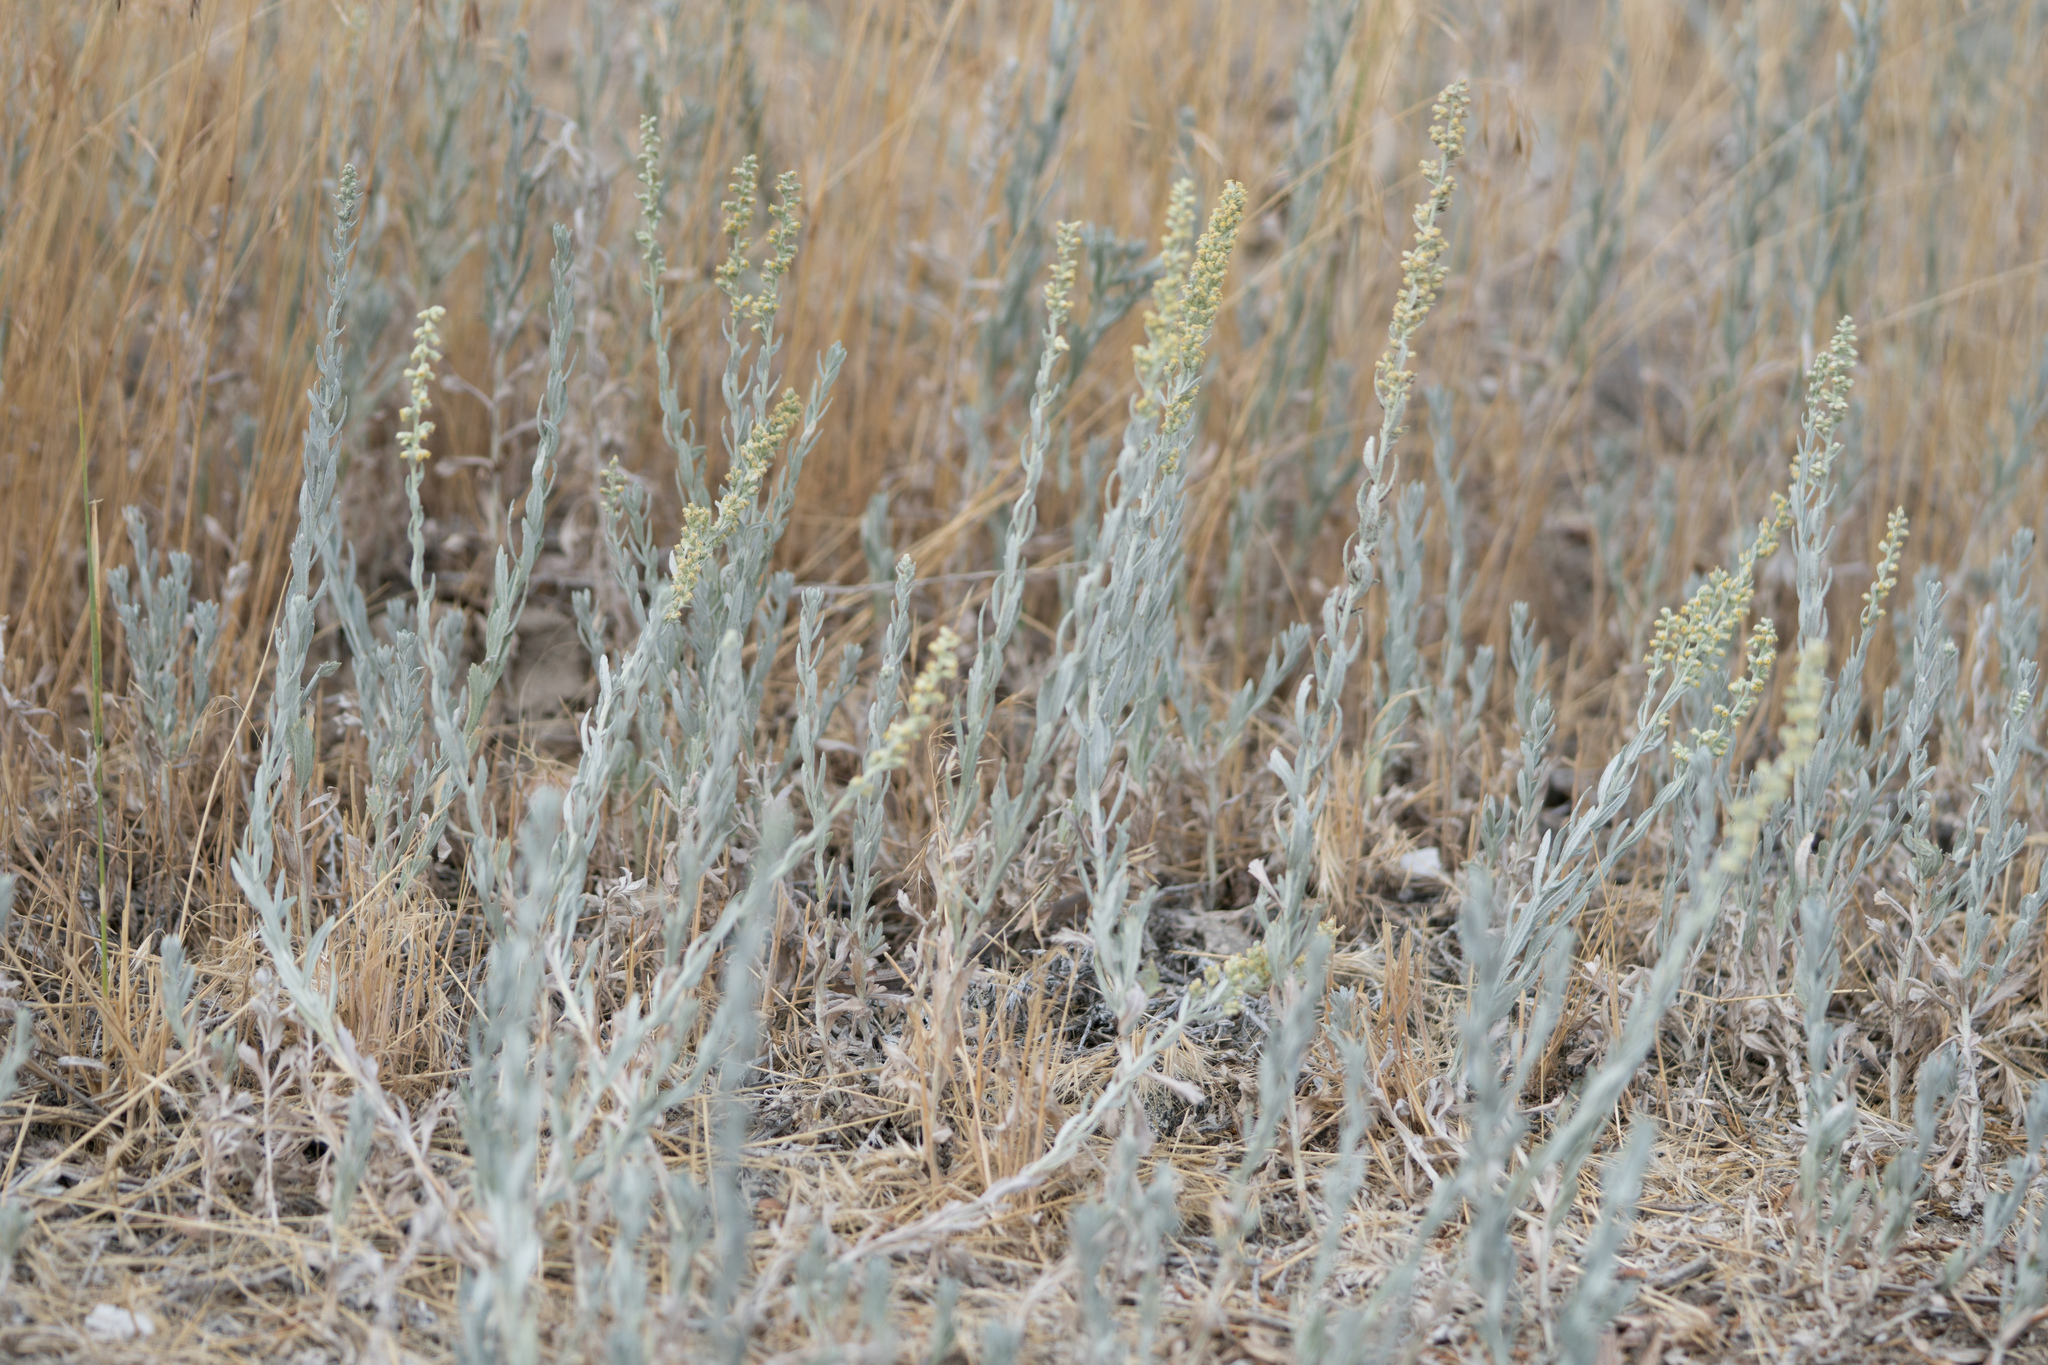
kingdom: Plantae
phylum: Tracheophyta
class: Magnoliopsida
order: Asterales
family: Asteraceae
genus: Artemisia
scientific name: Artemisia ludoviciana
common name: Western mugwort
